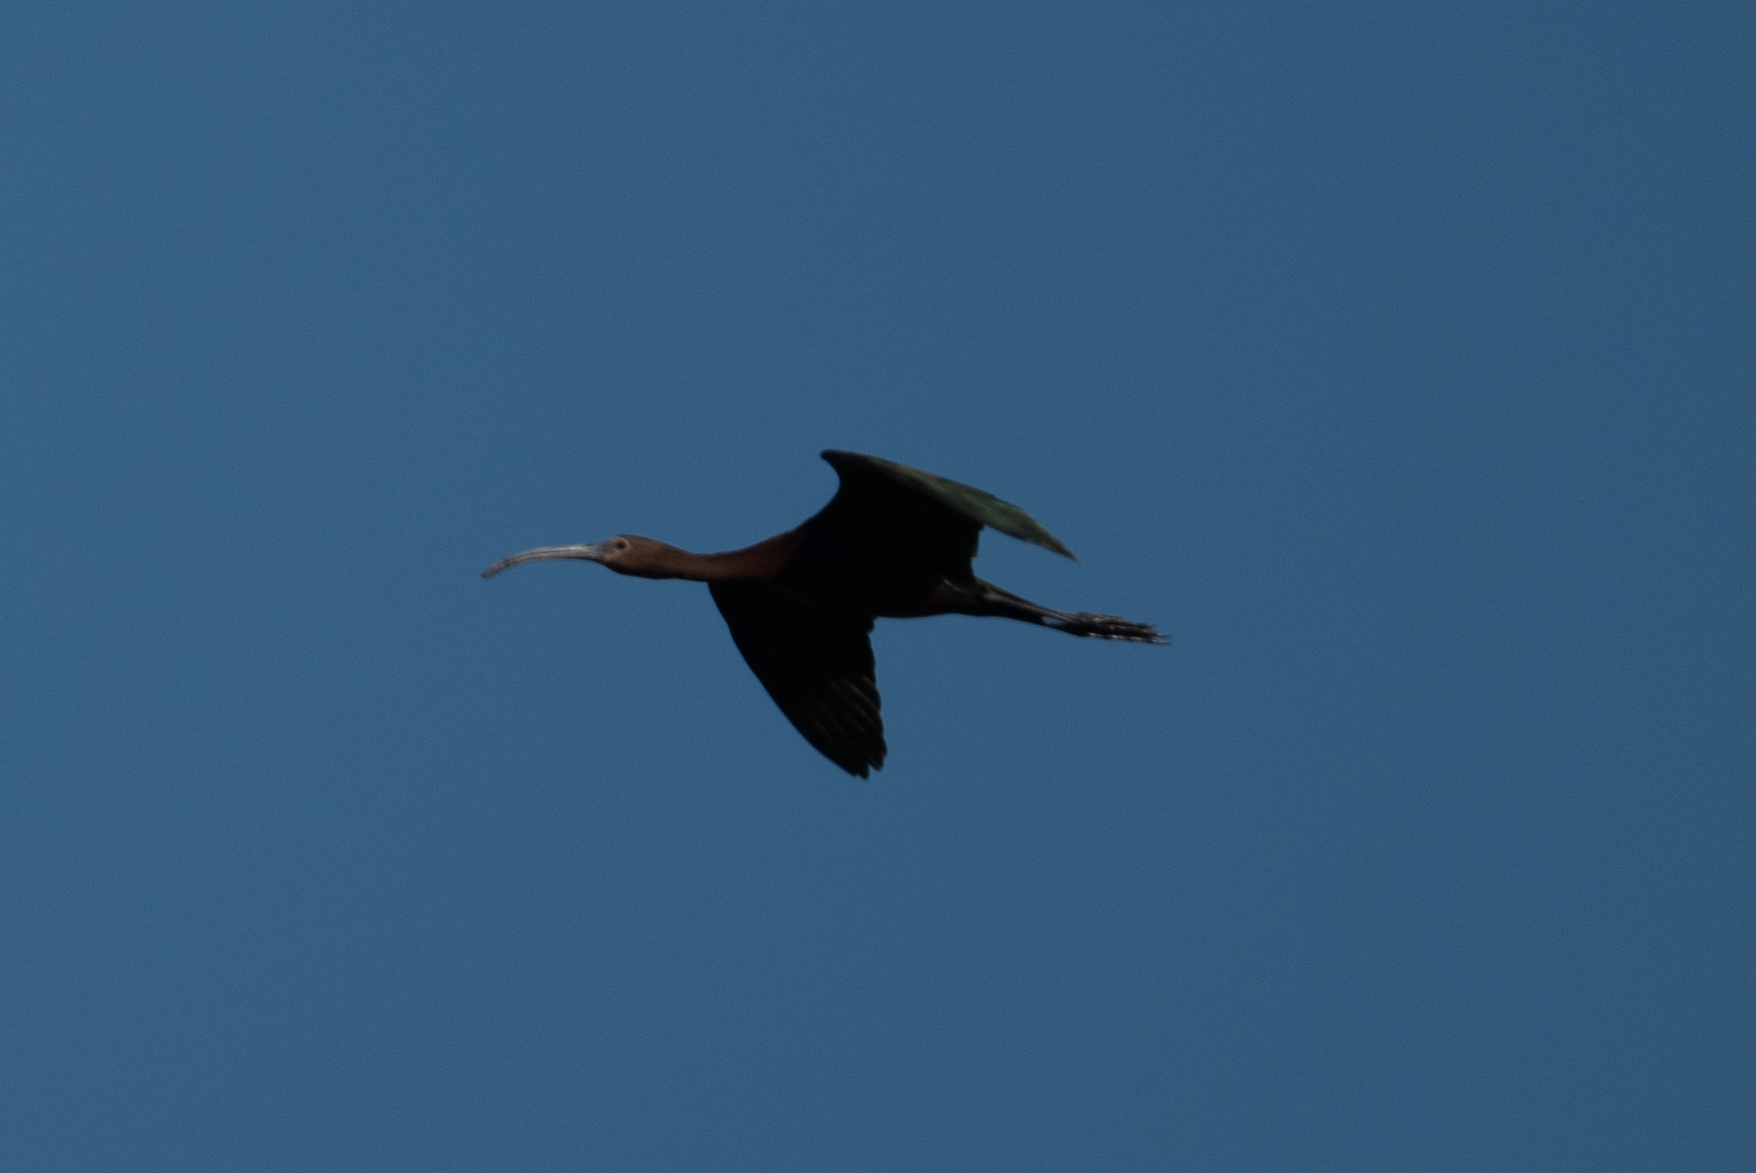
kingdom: Animalia
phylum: Chordata
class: Aves
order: Pelecaniformes
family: Threskiornithidae
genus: Plegadis
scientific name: Plegadis chihi
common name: White-faced ibis
